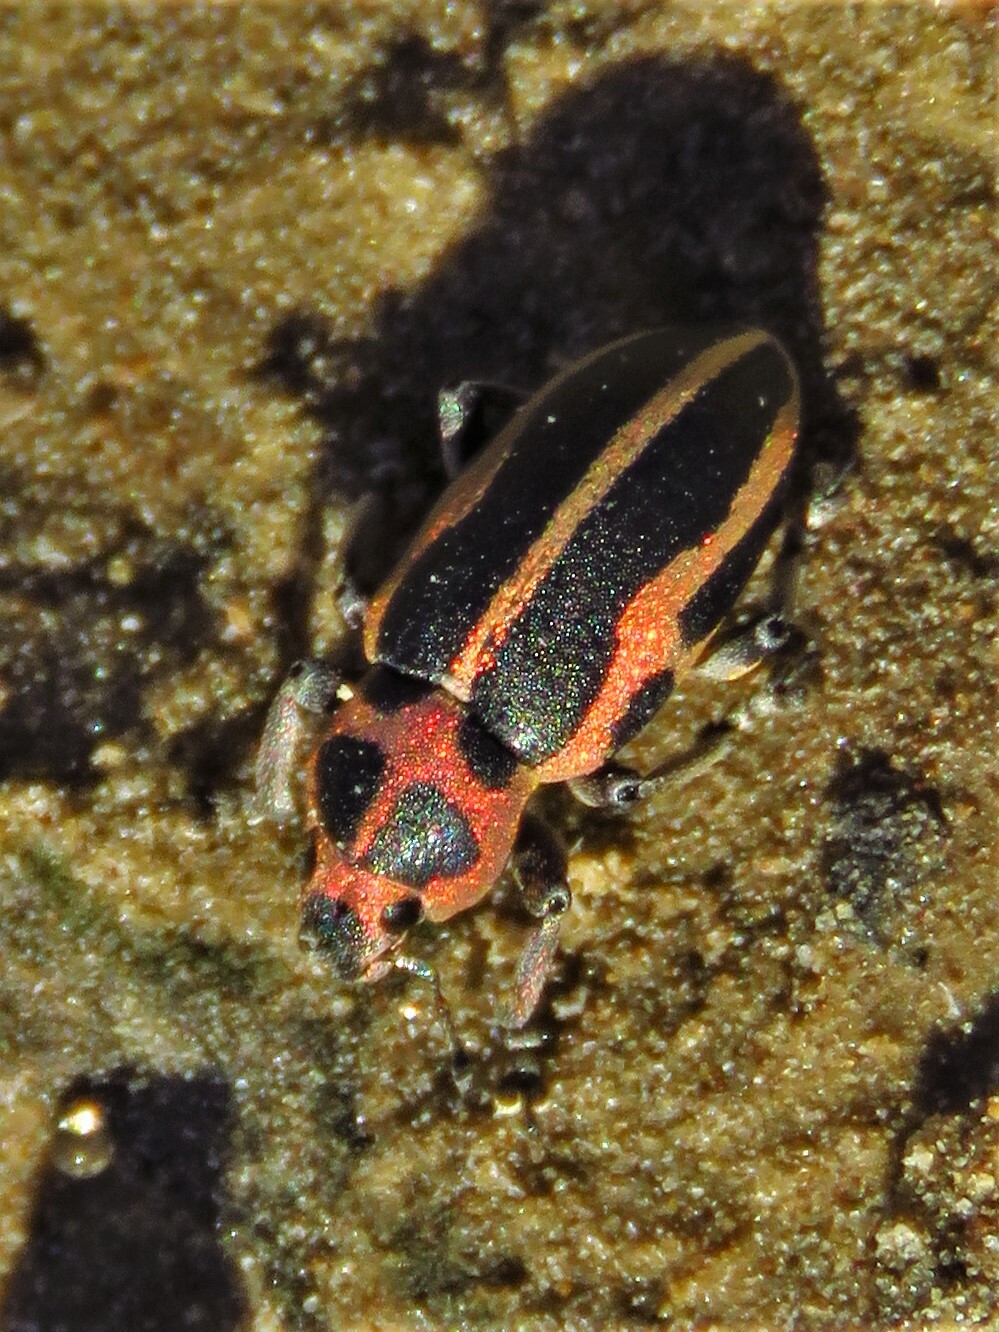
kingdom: Animalia
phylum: Arthropoda
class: Insecta
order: Coleoptera
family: Curculionidae
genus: Eudiagogus
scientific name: Eudiagogus pulcher
